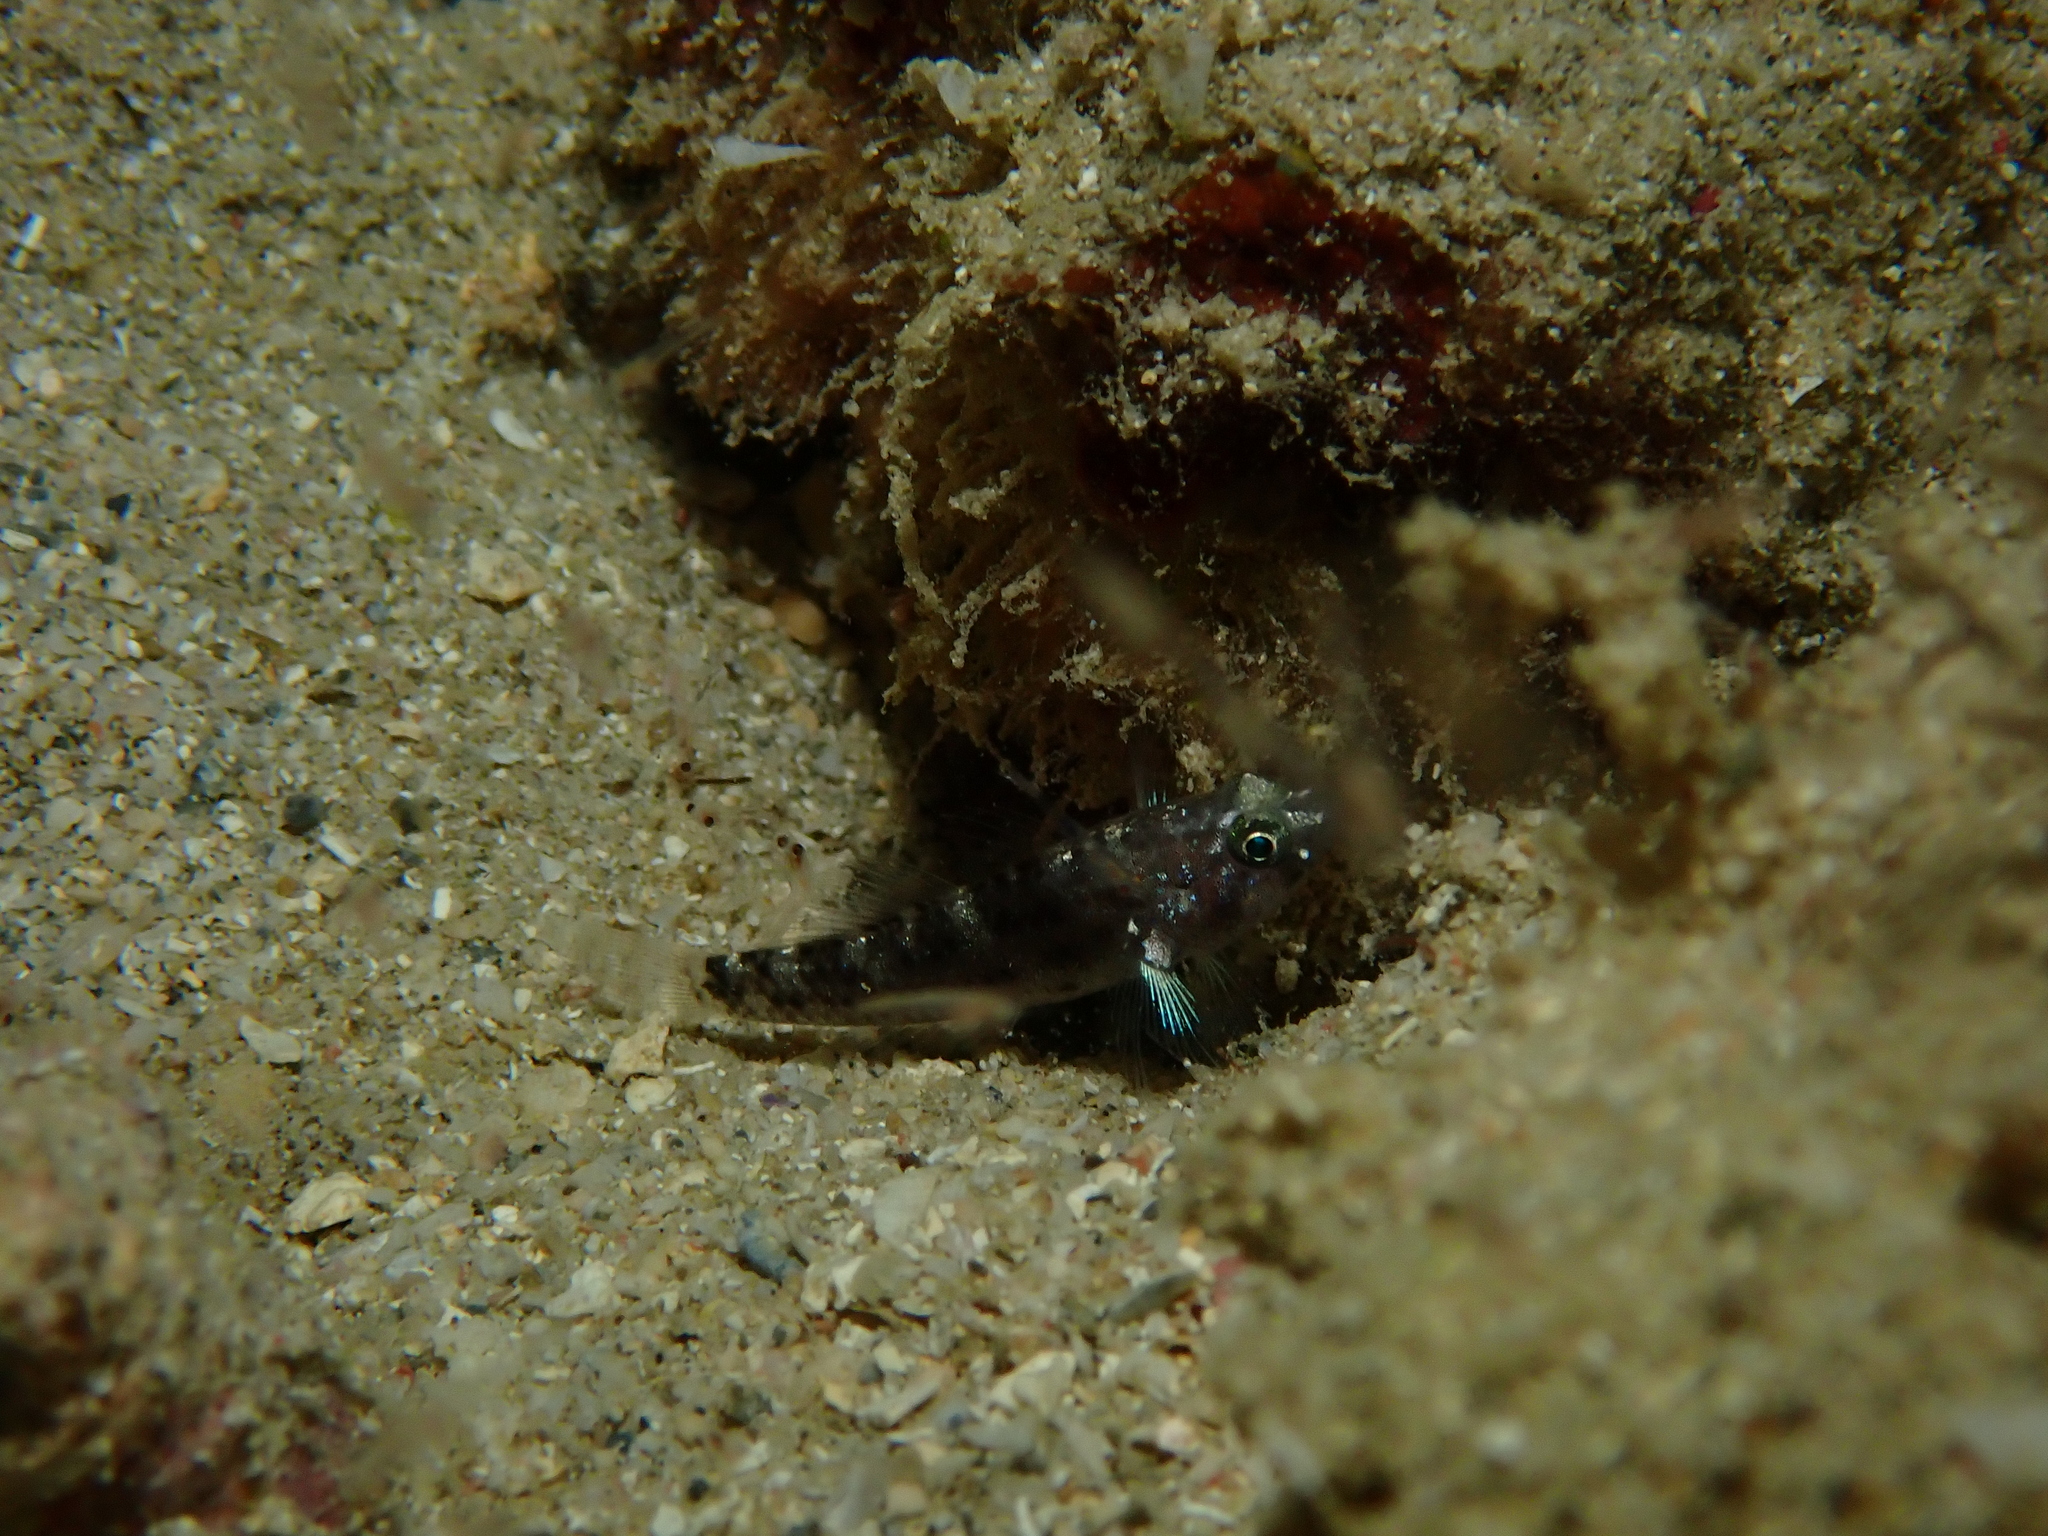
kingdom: Animalia
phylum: Chordata
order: Perciformes
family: Gobiidae
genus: Asterropteryx
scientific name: Asterropteryx semipunctata
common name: Starry goby
